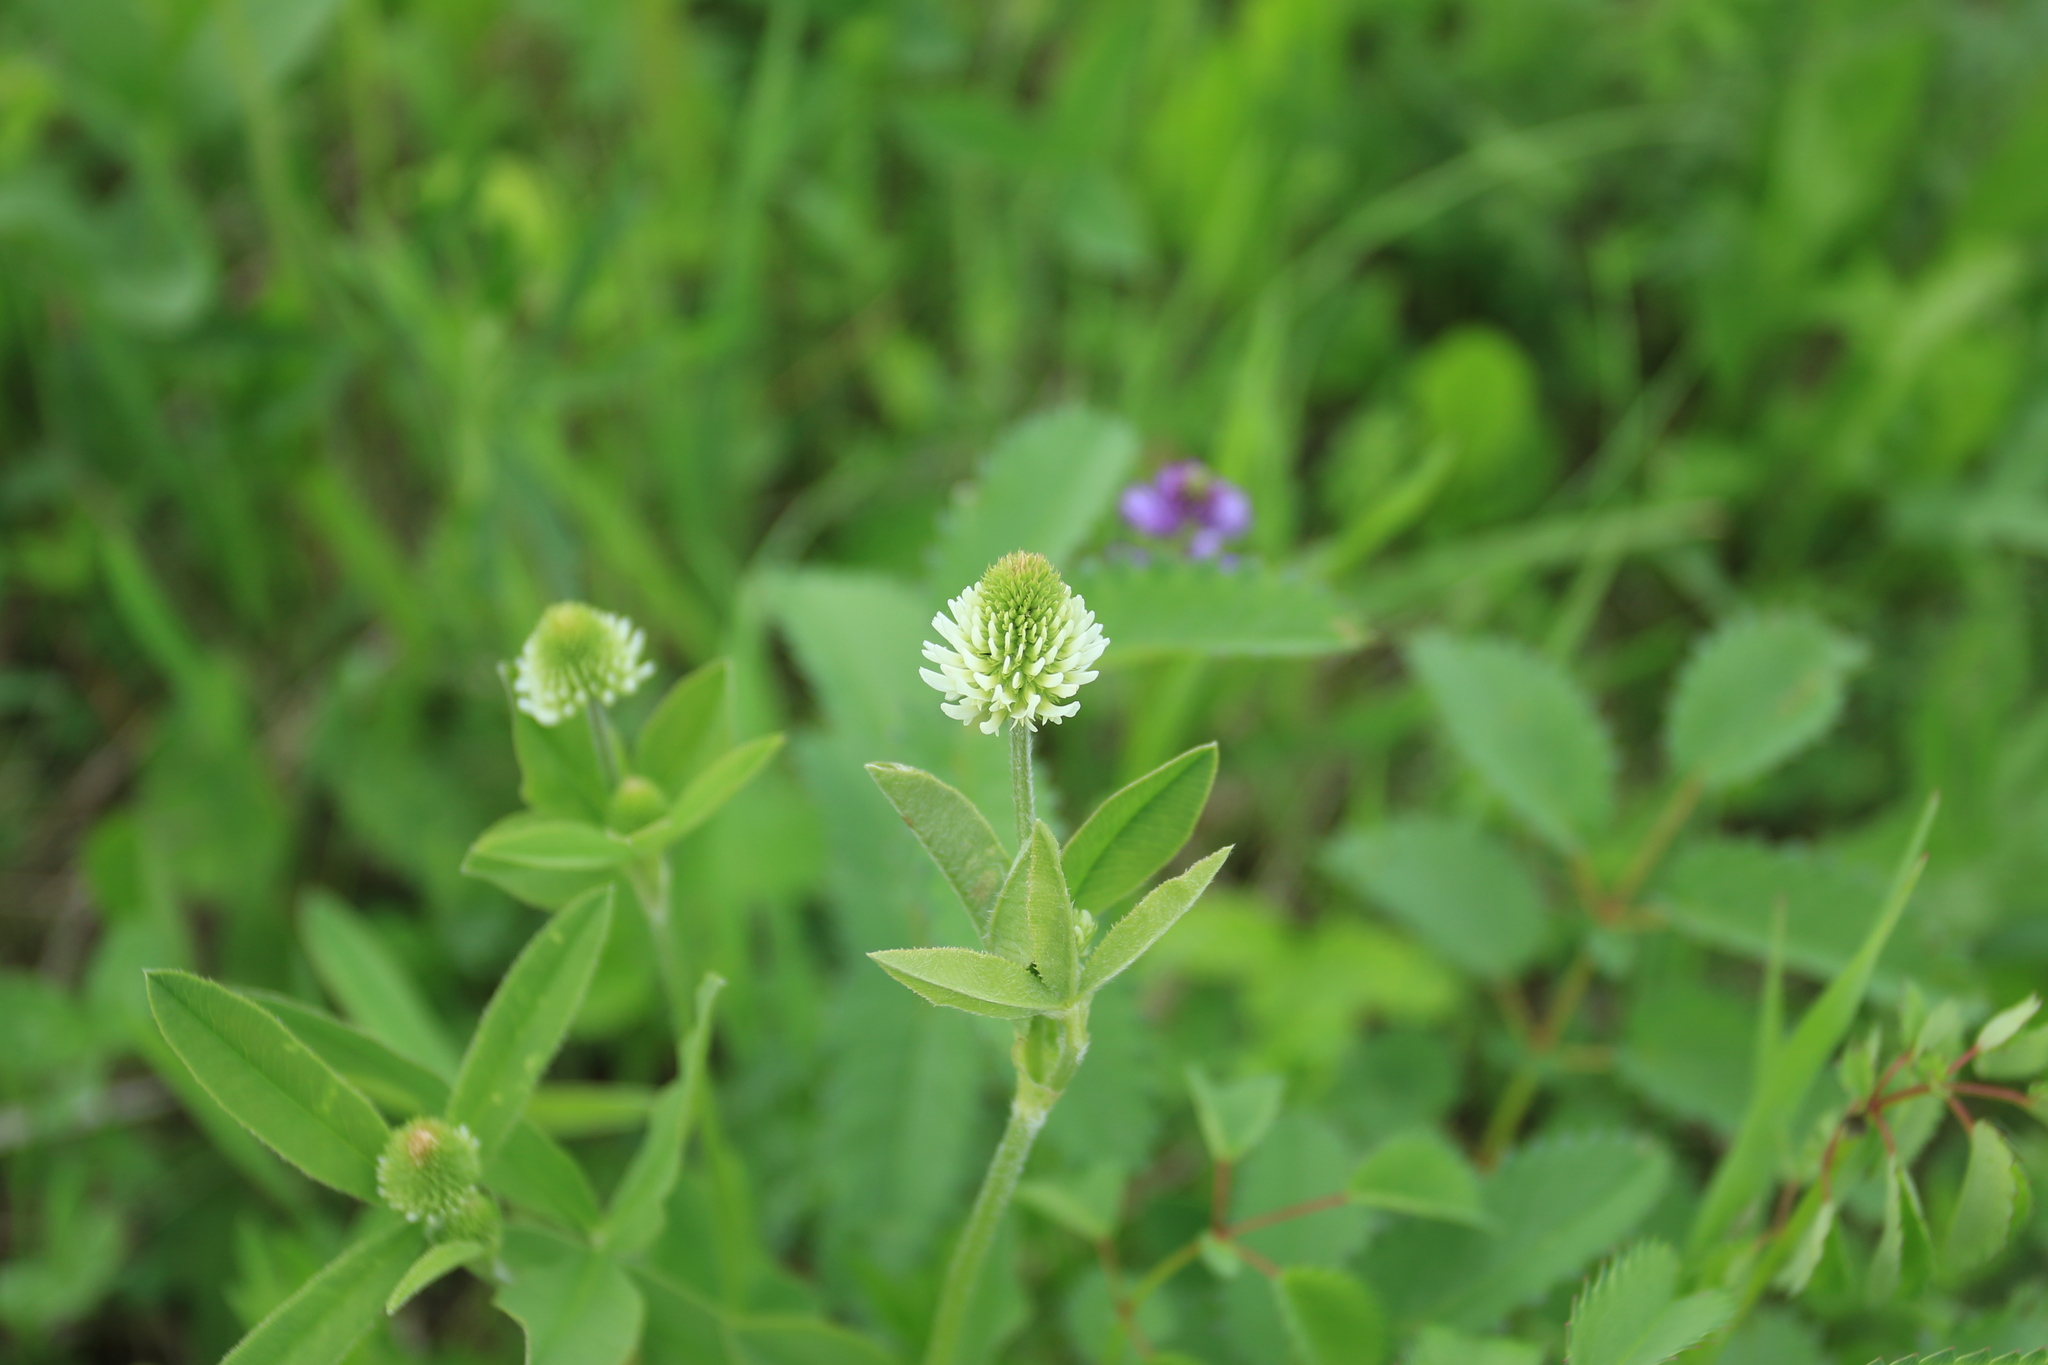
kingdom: Plantae
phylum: Tracheophyta
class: Magnoliopsida
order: Fabales
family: Fabaceae
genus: Trifolium
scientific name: Trifolium montanum
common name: Mountain clover
